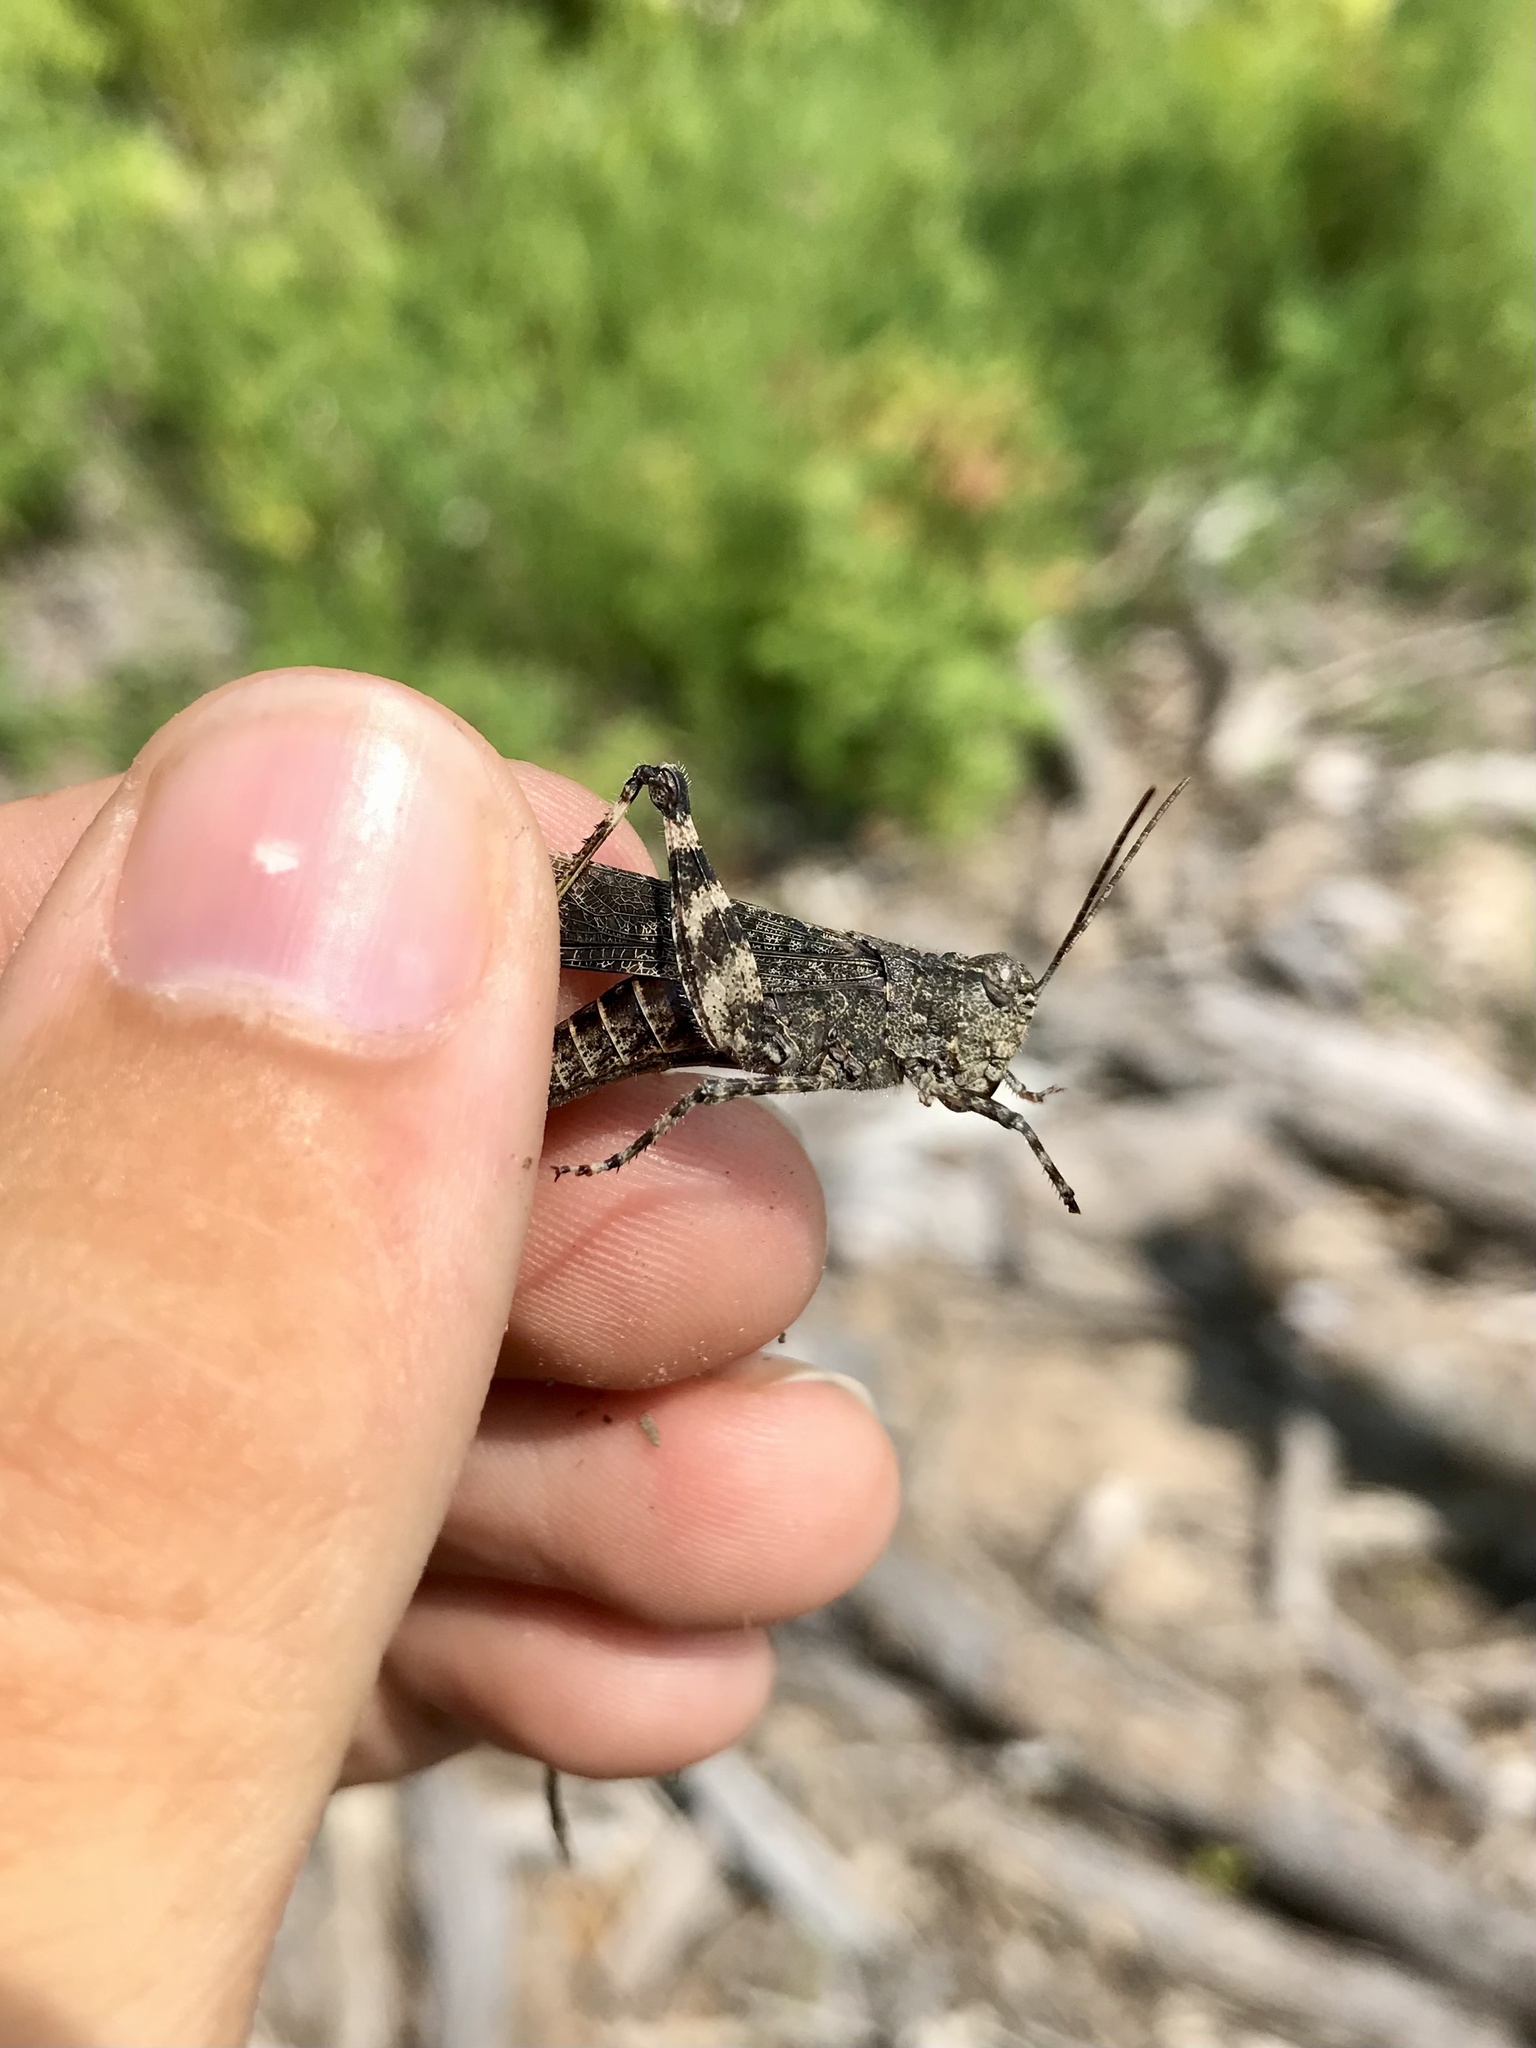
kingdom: Animalia
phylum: Arthropoda
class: Insecta
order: Orthoptera
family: Acrididae
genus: Trimerotropis
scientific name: Trimerotropis verruculata
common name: Crackling forest grasshopper
